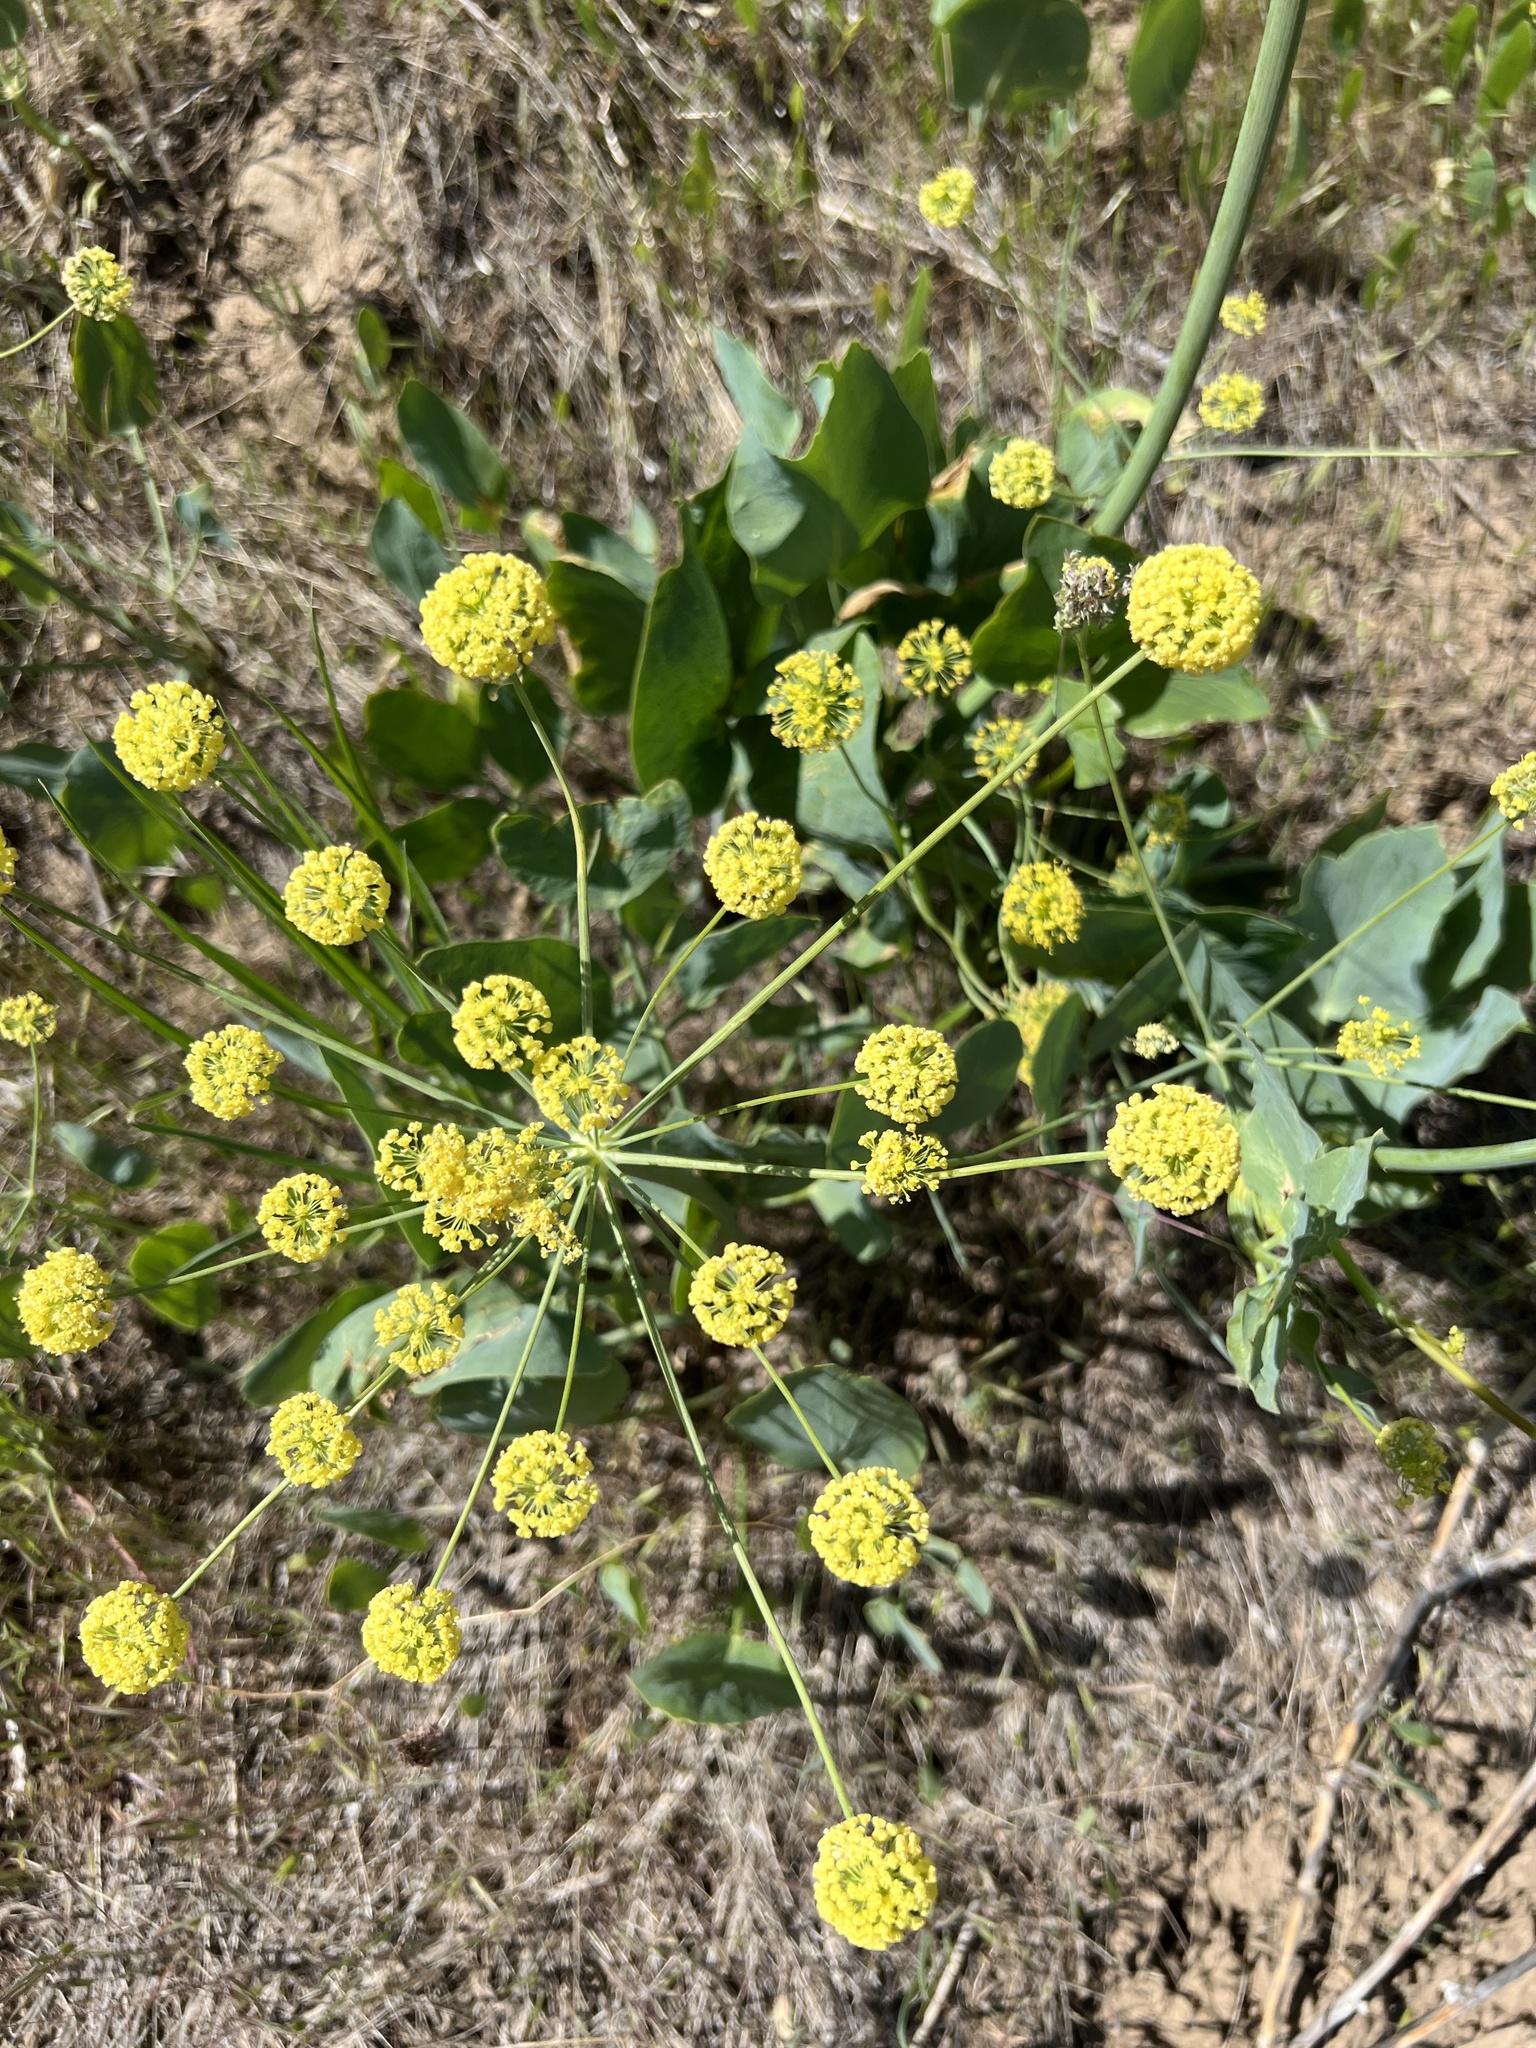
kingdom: Plantae
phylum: Tracheophyta
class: Magnoliopsida
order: Apiales
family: Apiaceae
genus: Lomatium
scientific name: Lomatium nudicaule
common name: Pestle lomatium
